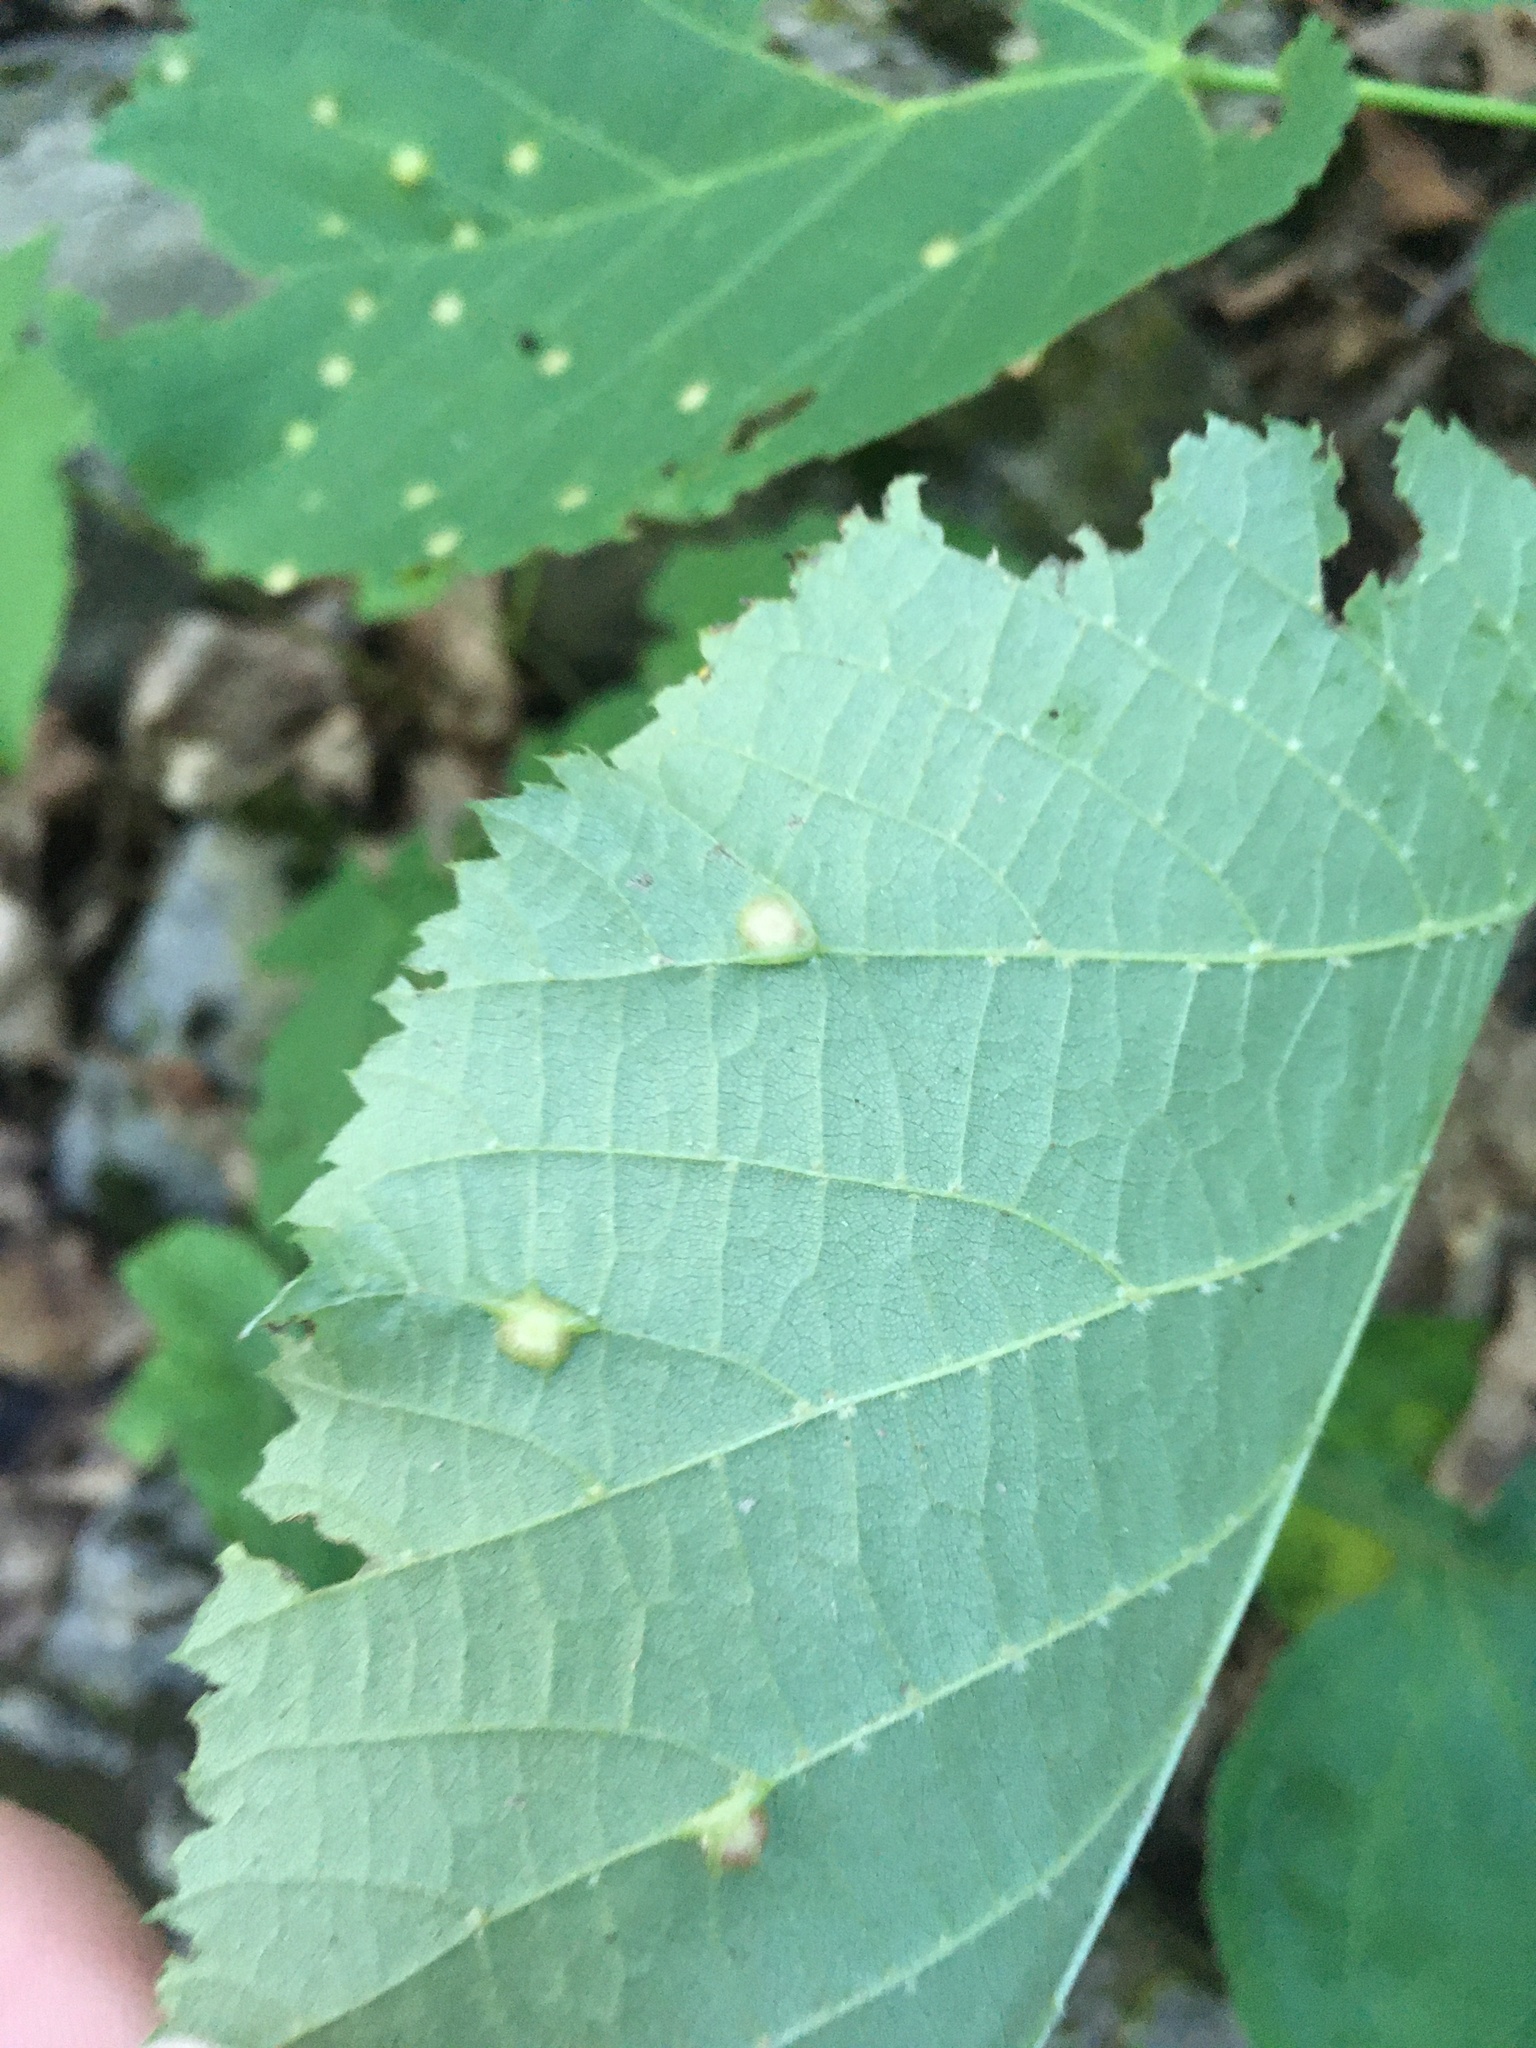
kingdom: Animalia
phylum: Arthropoda
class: Insecta
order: Diptera
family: Cecidomyiidae
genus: Contarinia
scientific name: Contarinia verrucicola
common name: Linden wart gall midge
